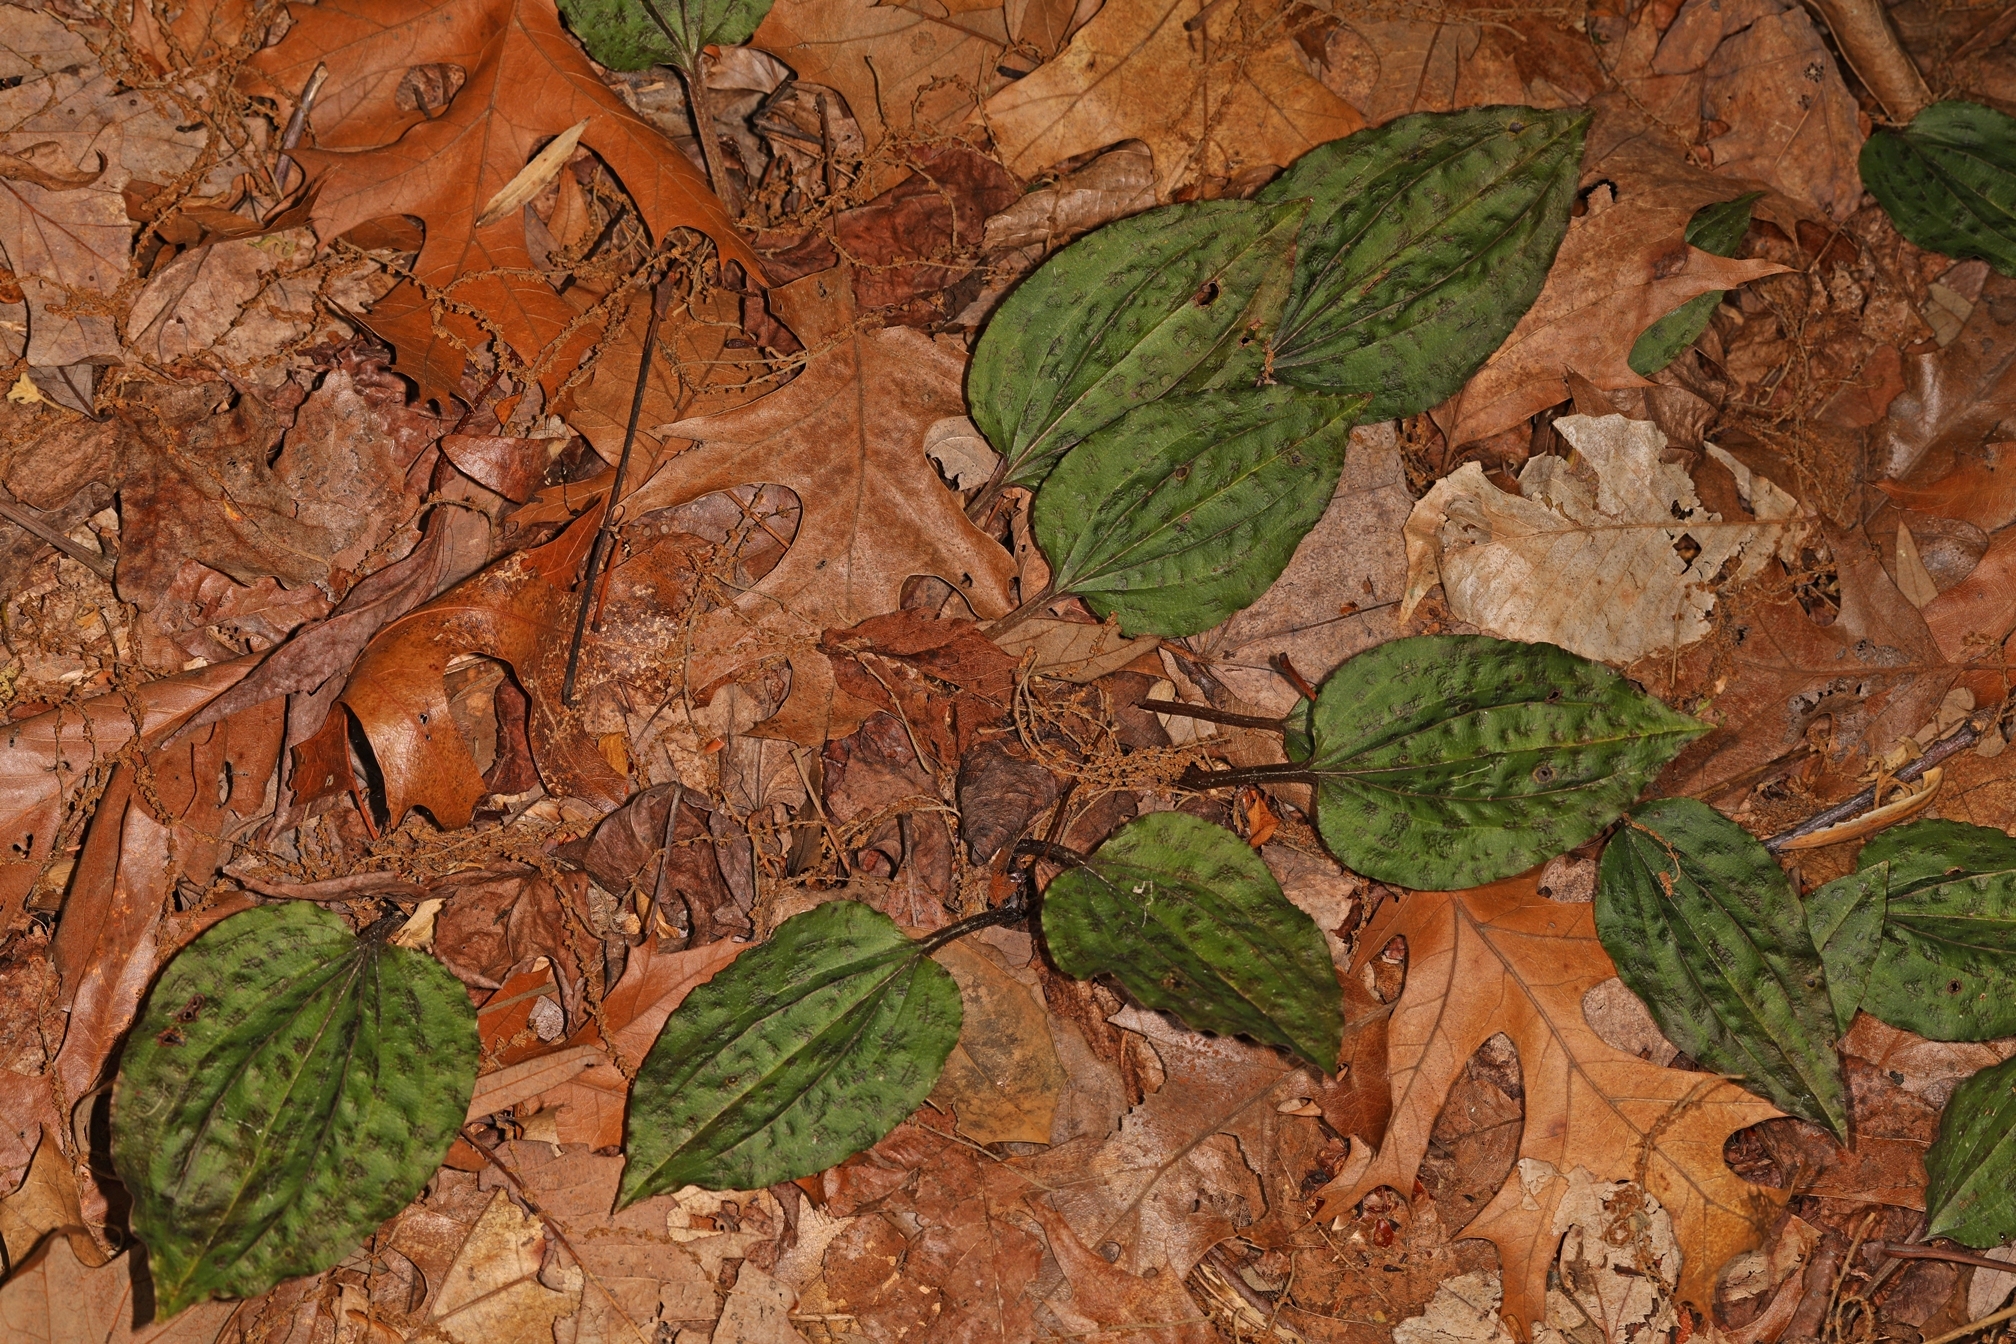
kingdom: Plantae
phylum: Tracheophyta
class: Liliopsida
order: Asparagales
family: Orchidaceae
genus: Tipularia
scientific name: Tipularia discolor
